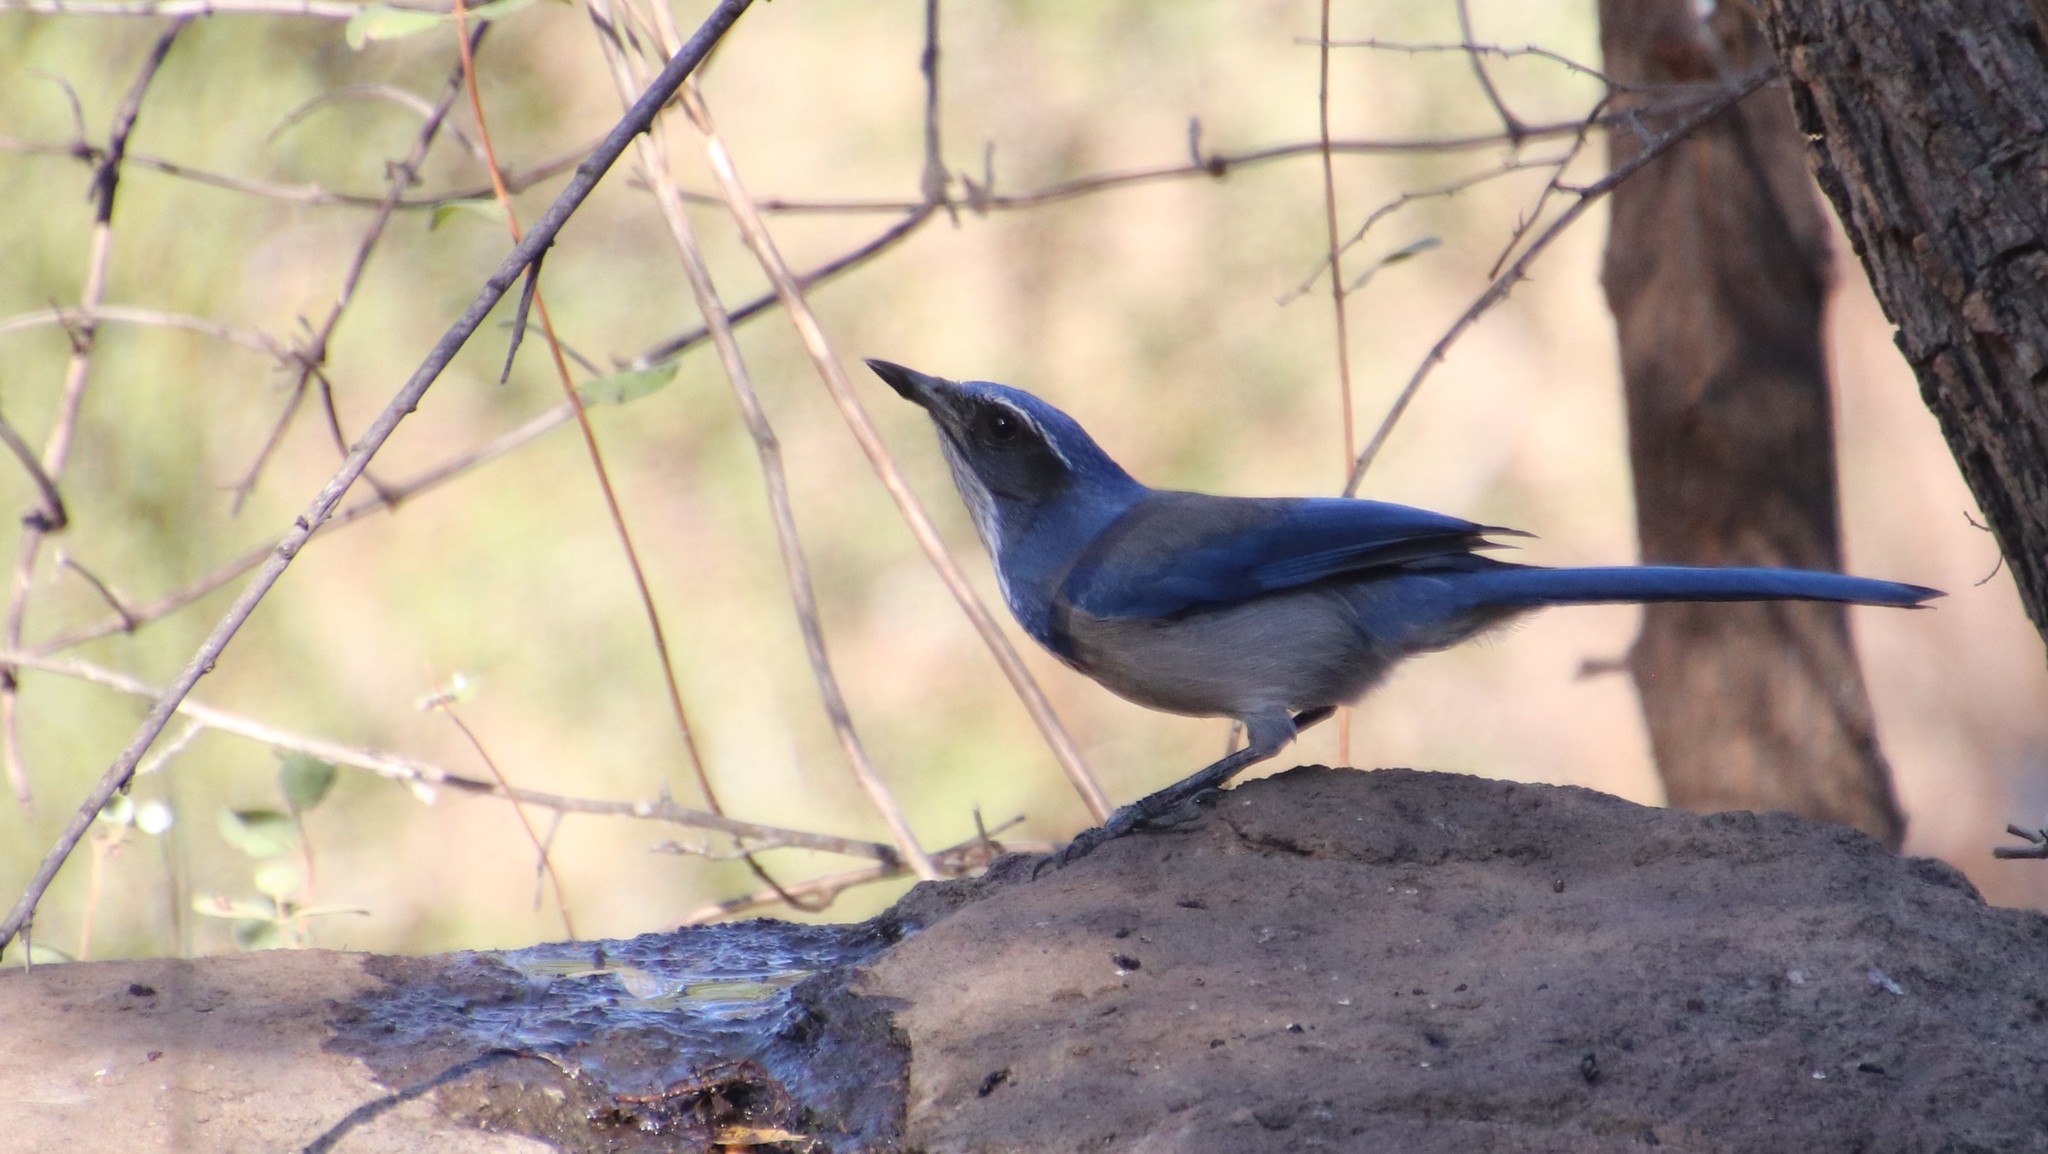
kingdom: Animalia
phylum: Chordata
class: Aves
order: Passeriformes
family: Corvidae
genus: Aphelocoma
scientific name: Aphelocoma californica
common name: California scrub-jay
